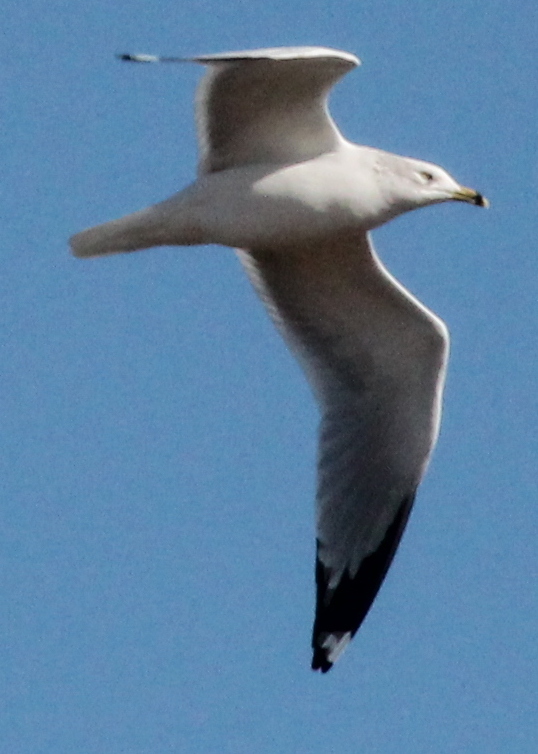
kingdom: Animalia
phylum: Chordata
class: Aves
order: Charadriiformes
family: Laridae
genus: Larus
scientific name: Larus delawarensis
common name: Ring-billed gull
